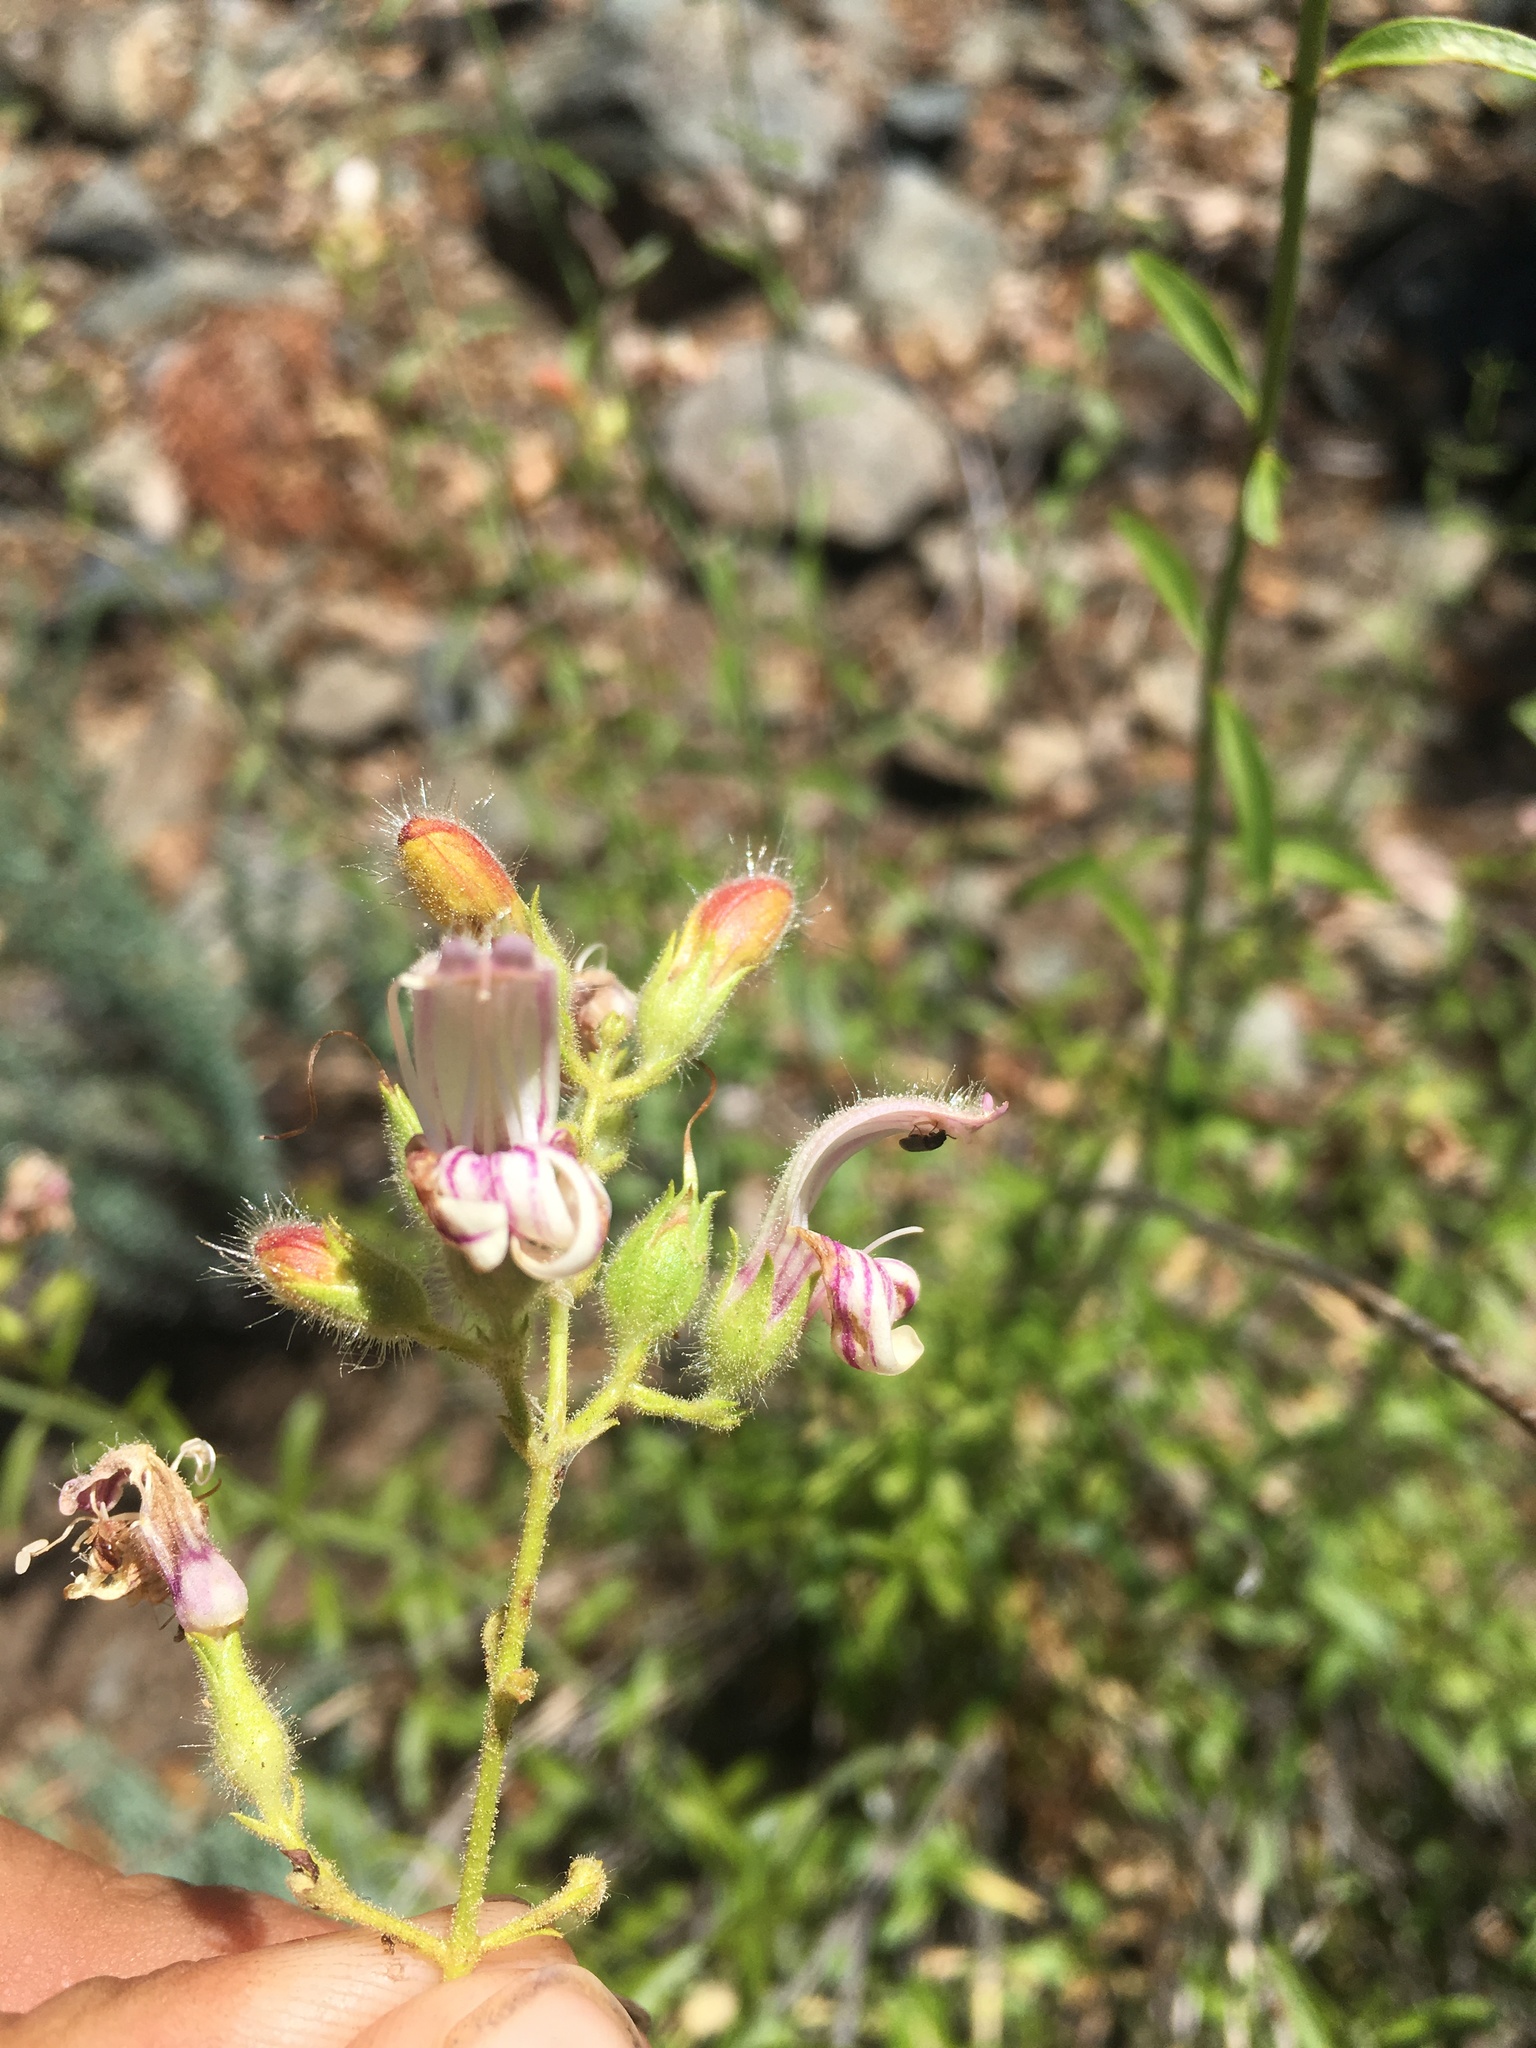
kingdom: Plantae
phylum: Tracheophyta
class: Magnoliopsida
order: Lamiales
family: Plantaginaceae
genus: Keckiella
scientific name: Keckiella breviflora
